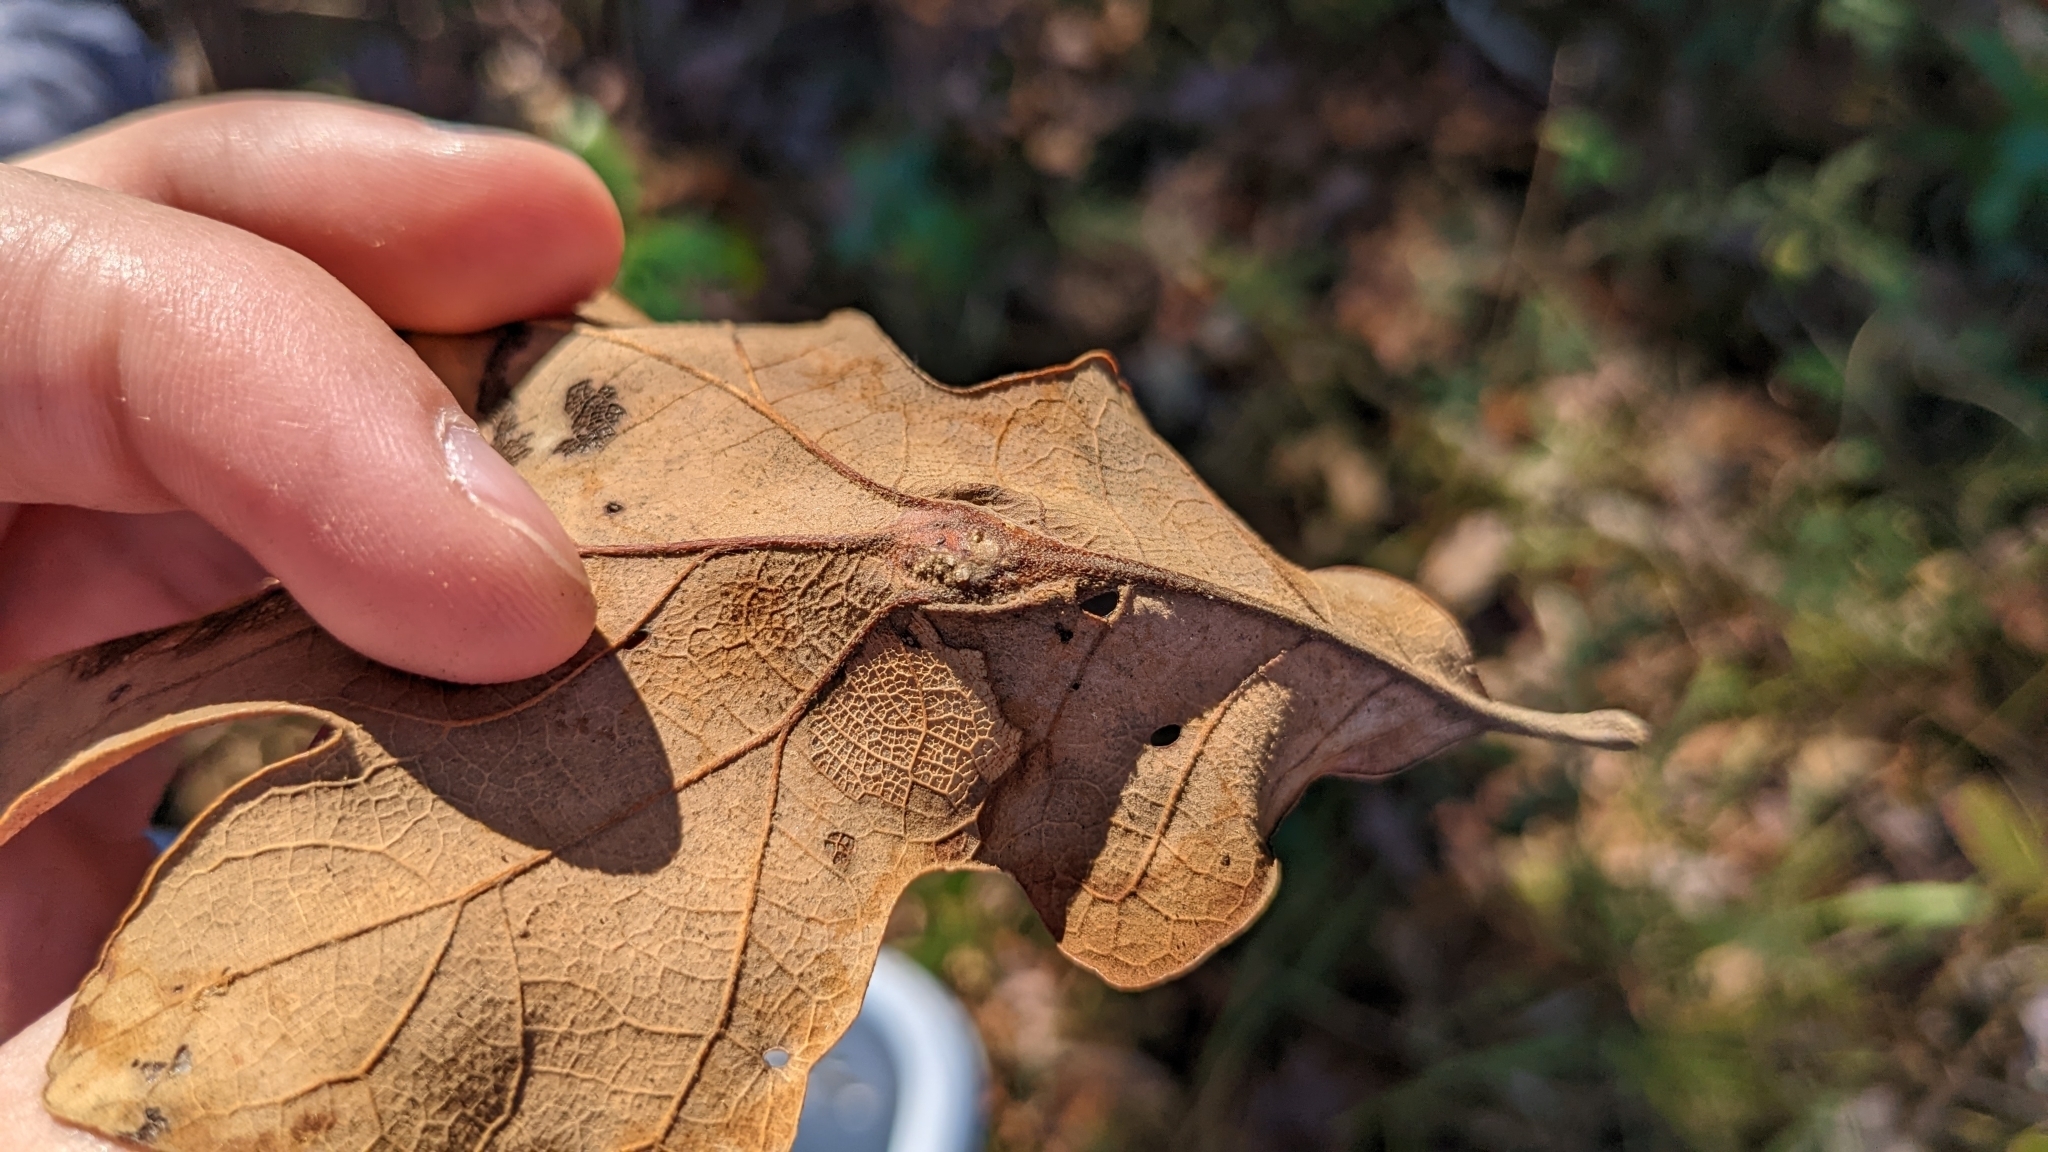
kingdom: Animalia
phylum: Arthropoda
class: Insecta
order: Hymenoptera
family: Cynipidae
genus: Andricus
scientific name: Andricus
